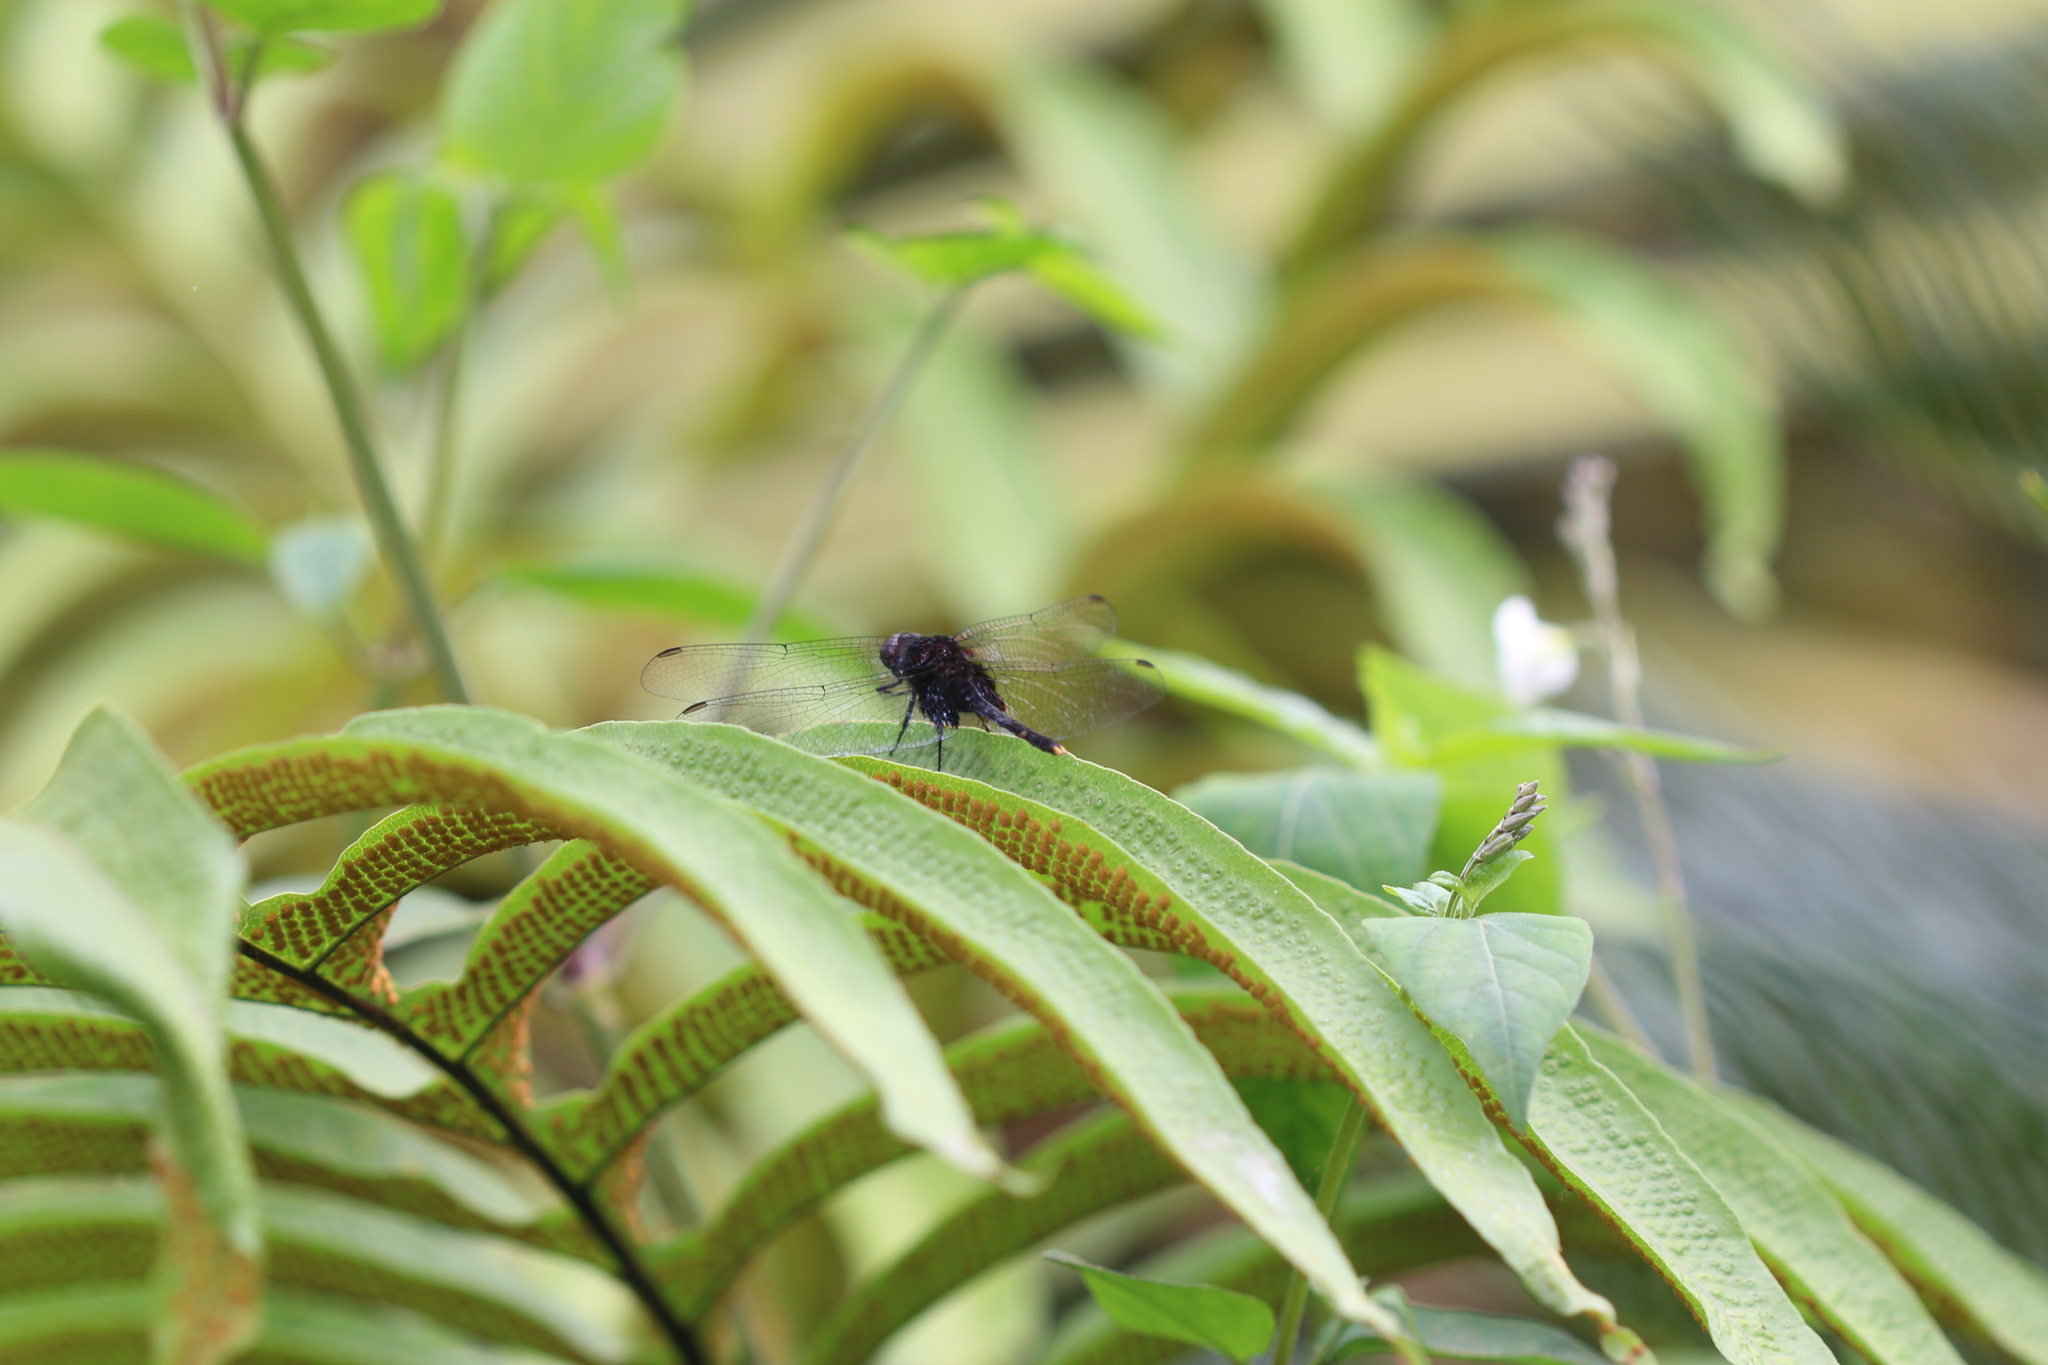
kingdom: Animalia
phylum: Arthropoda
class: Insecta
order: Odonata
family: Libellulidae
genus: Erythemis
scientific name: Erythemis attala
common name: Black pondhawk
